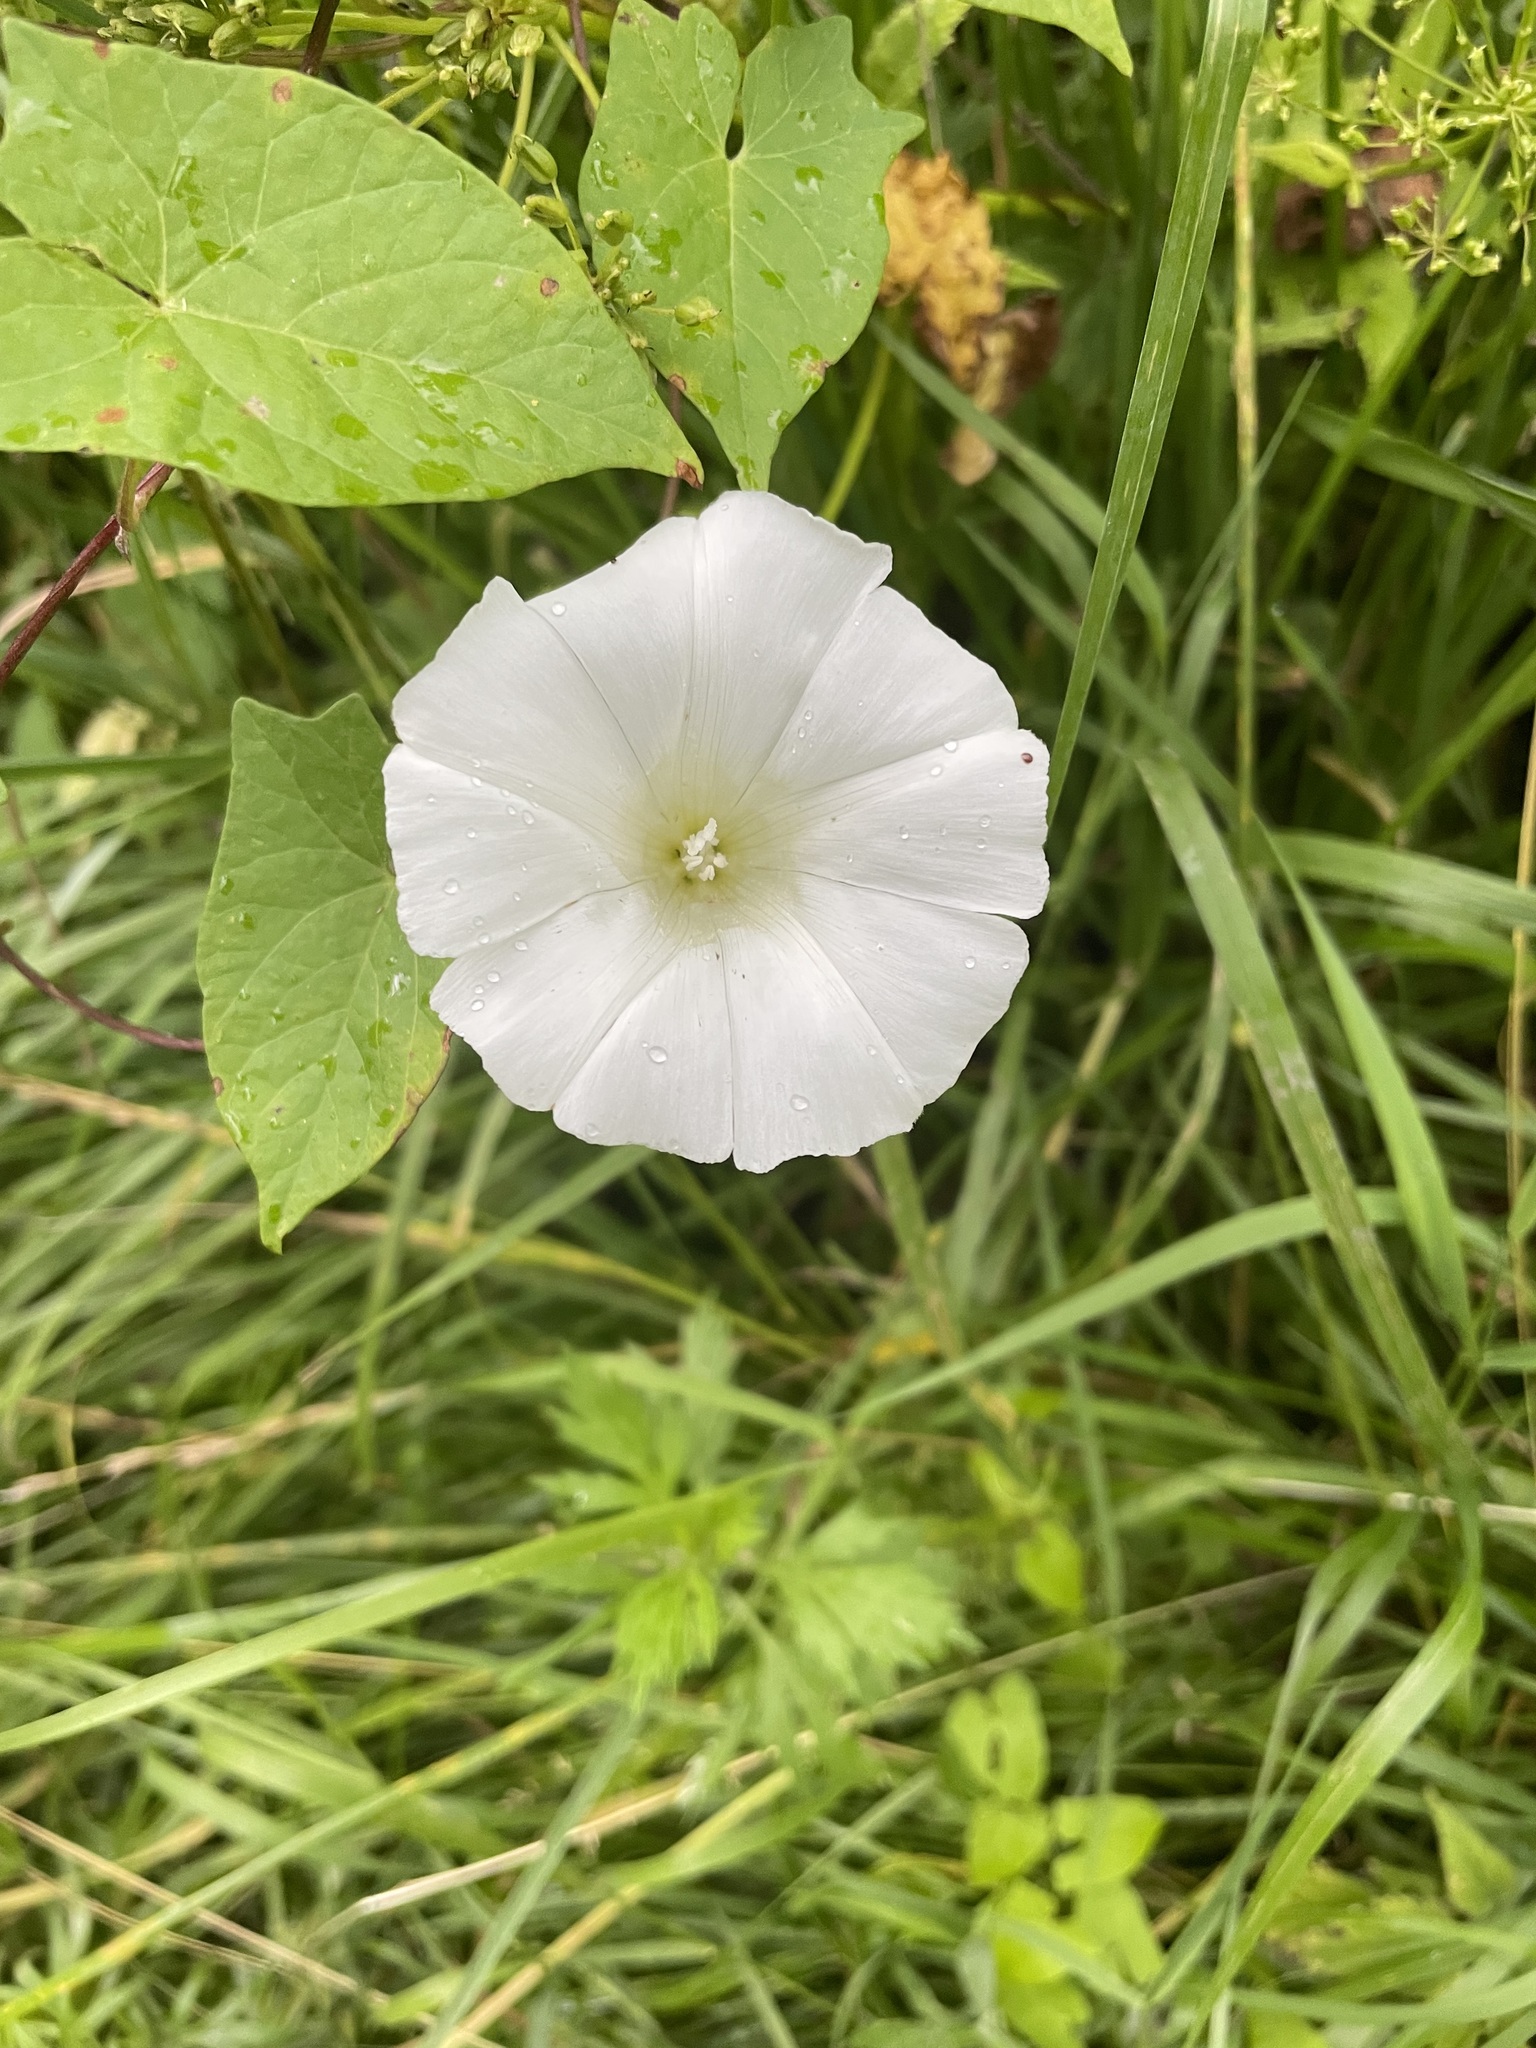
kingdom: Plantae
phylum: Tracheophyta
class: Magnoliopsida
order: Solanales
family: Convolvulaceae
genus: Calystegia
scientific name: Calystegia sepium
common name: Hedge bindweed
